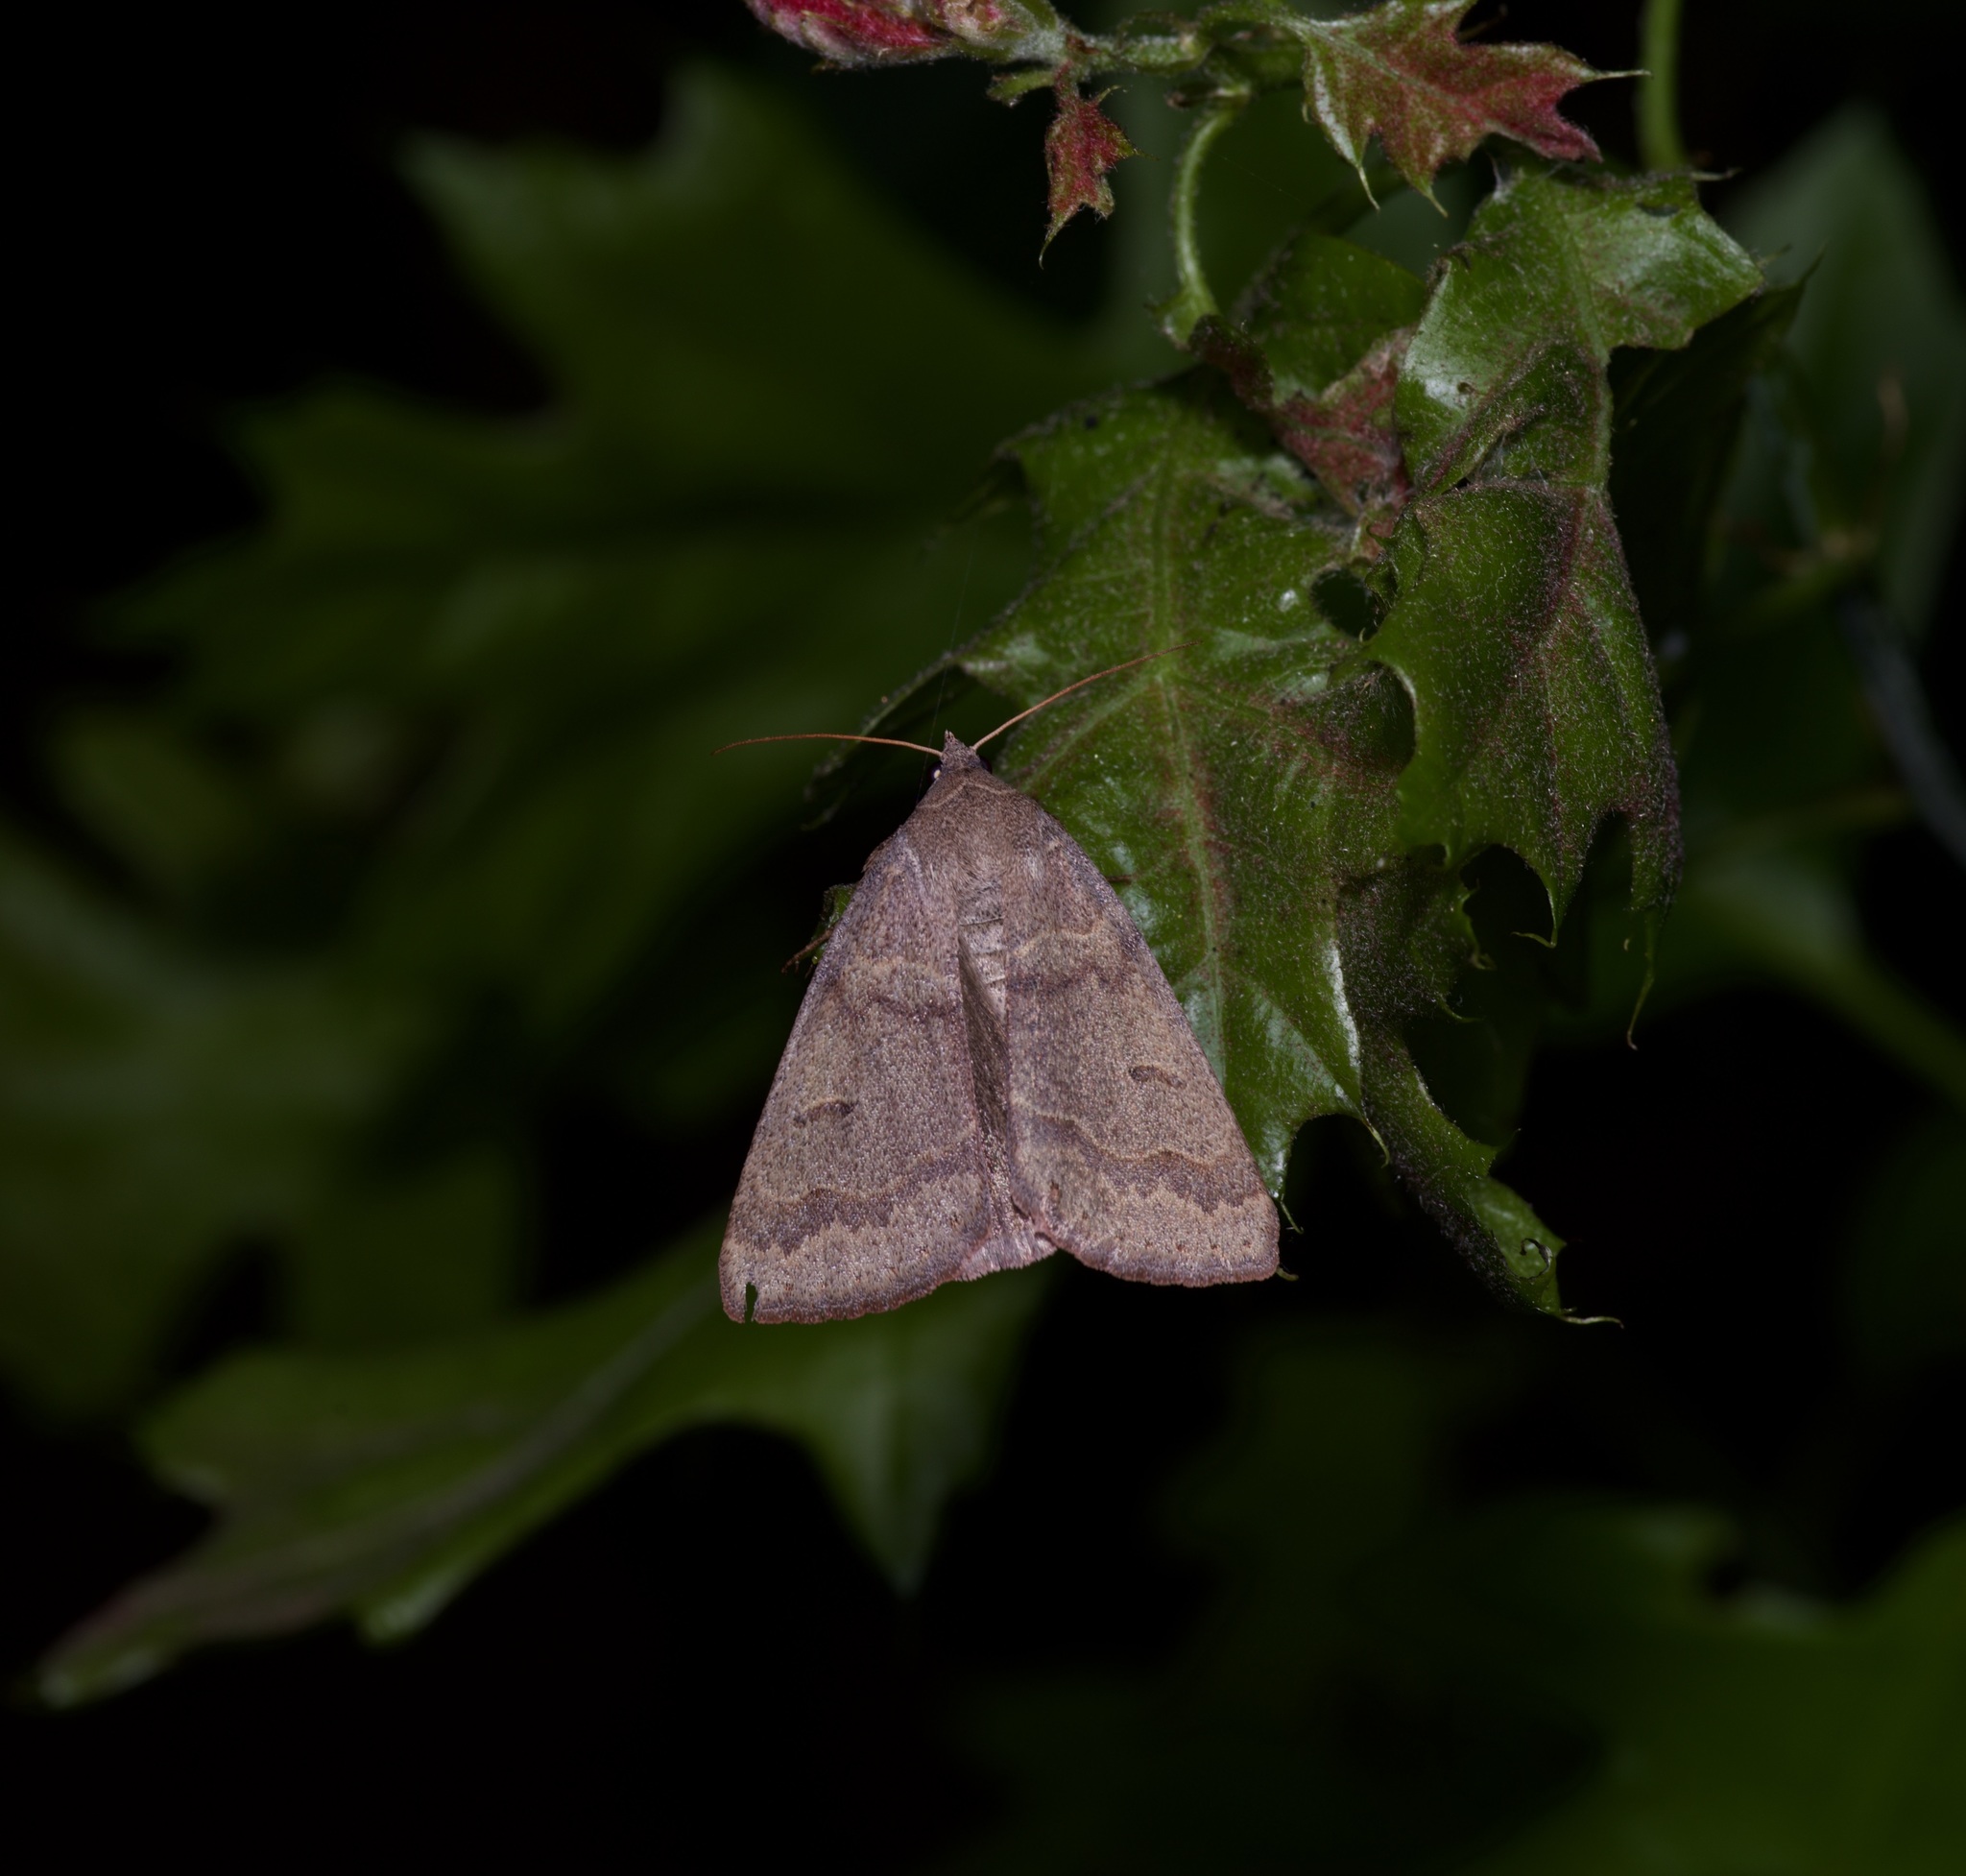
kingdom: Animalia
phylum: Arthropoda
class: Insecta
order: Lepidoptera
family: Erebidae
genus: Phoberia
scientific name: Phoberia atomaris
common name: Common oak moth
